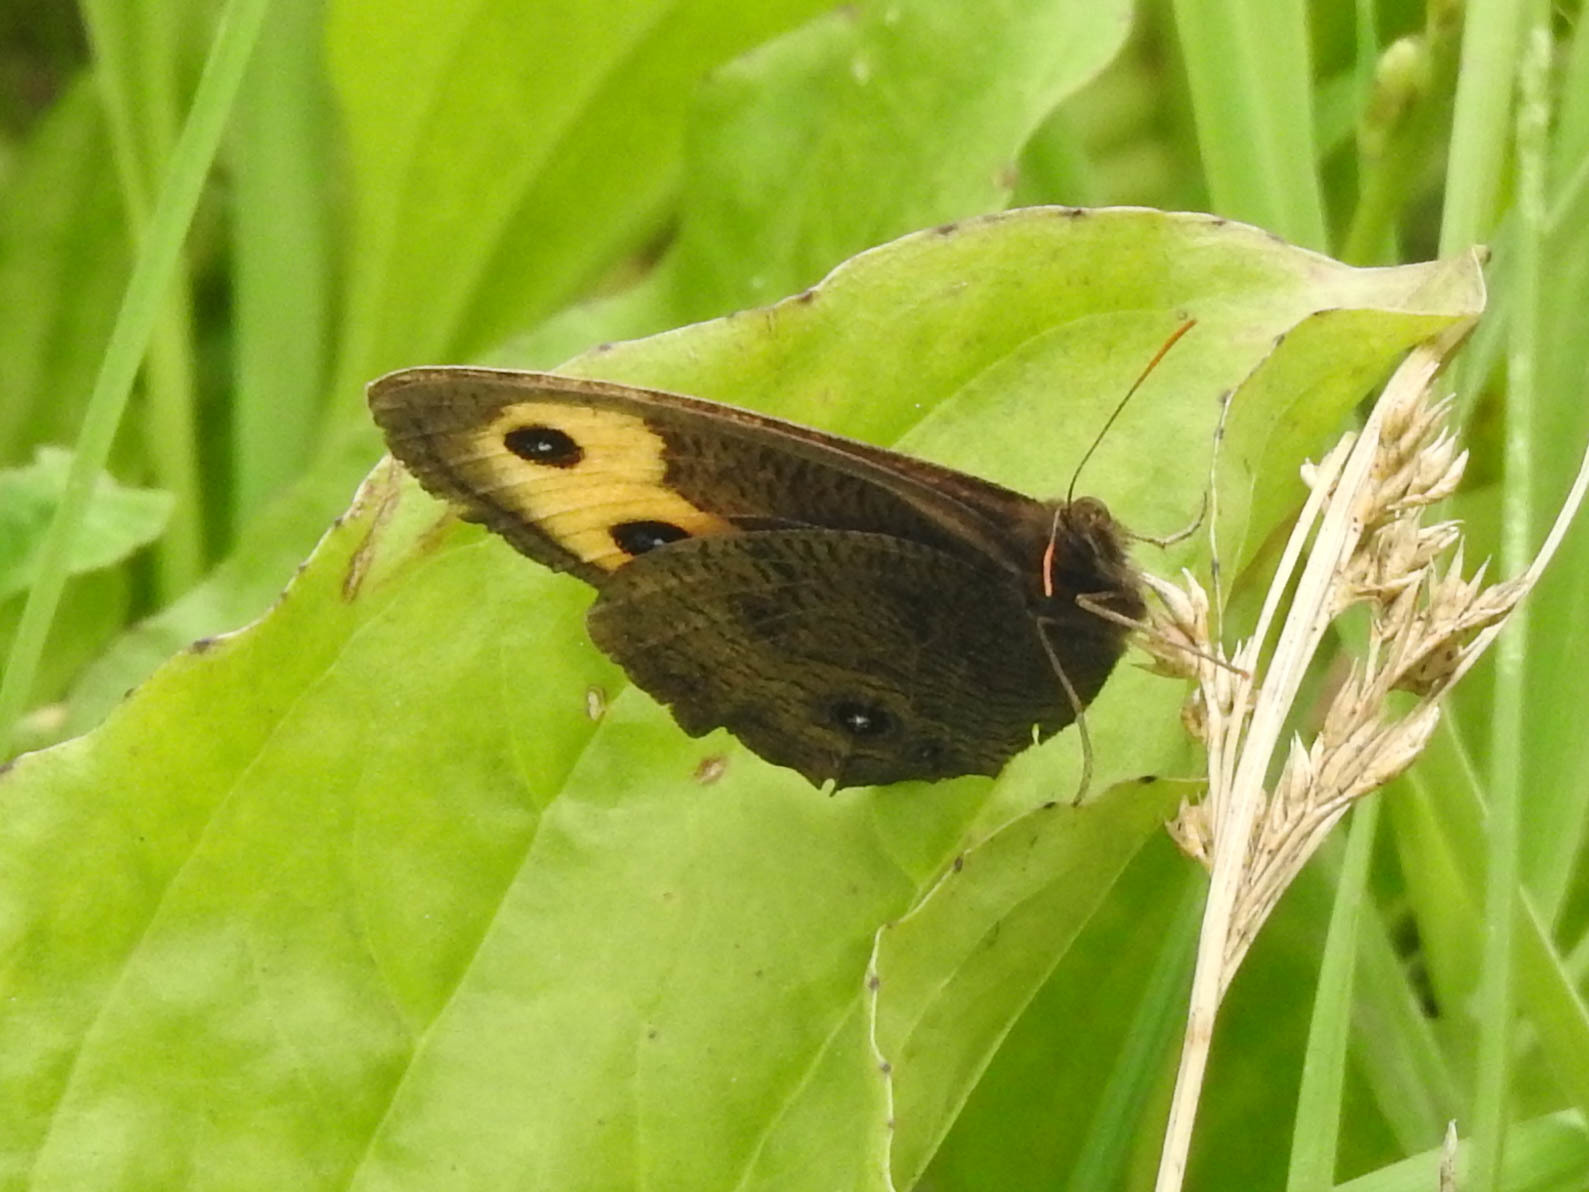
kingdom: Animalia
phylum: Arthropoda
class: Insecta
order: Lepidoptera
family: Nymphalidae
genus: Cercyonis
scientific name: Cercyonis pegala
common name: Common wood-nymph
